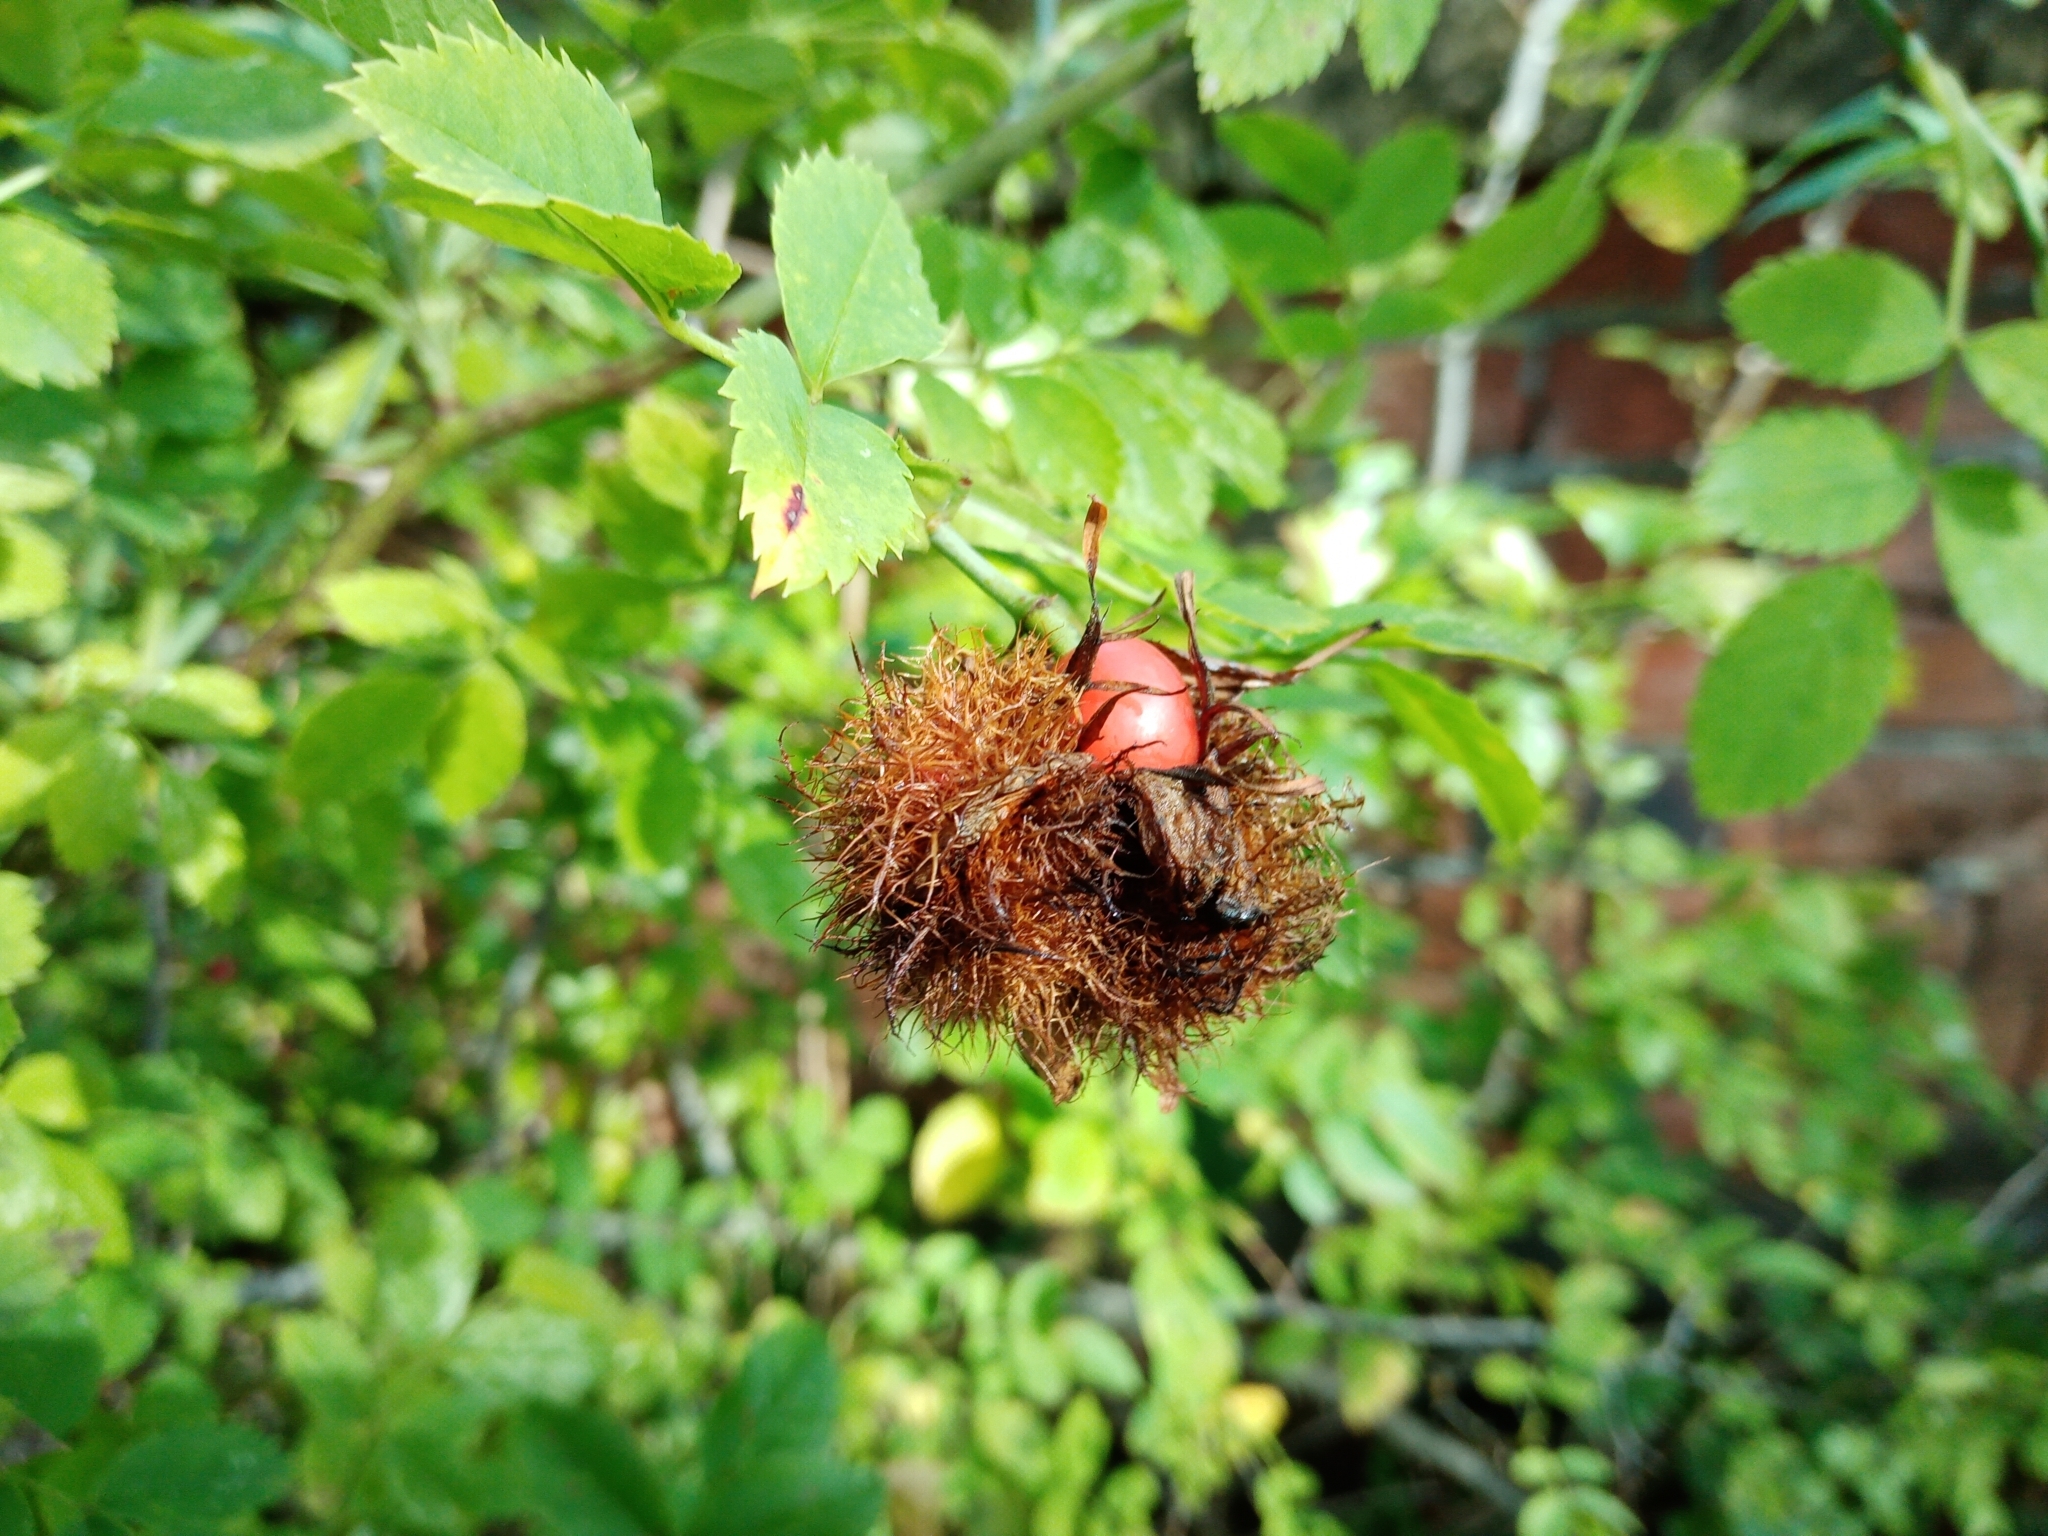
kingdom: Animalia
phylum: Arthropoda
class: Insecta
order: Hymenoptera
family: Cynipidae
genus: Diplolepis
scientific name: Diplolepis rosae
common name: Bedeguar gall
